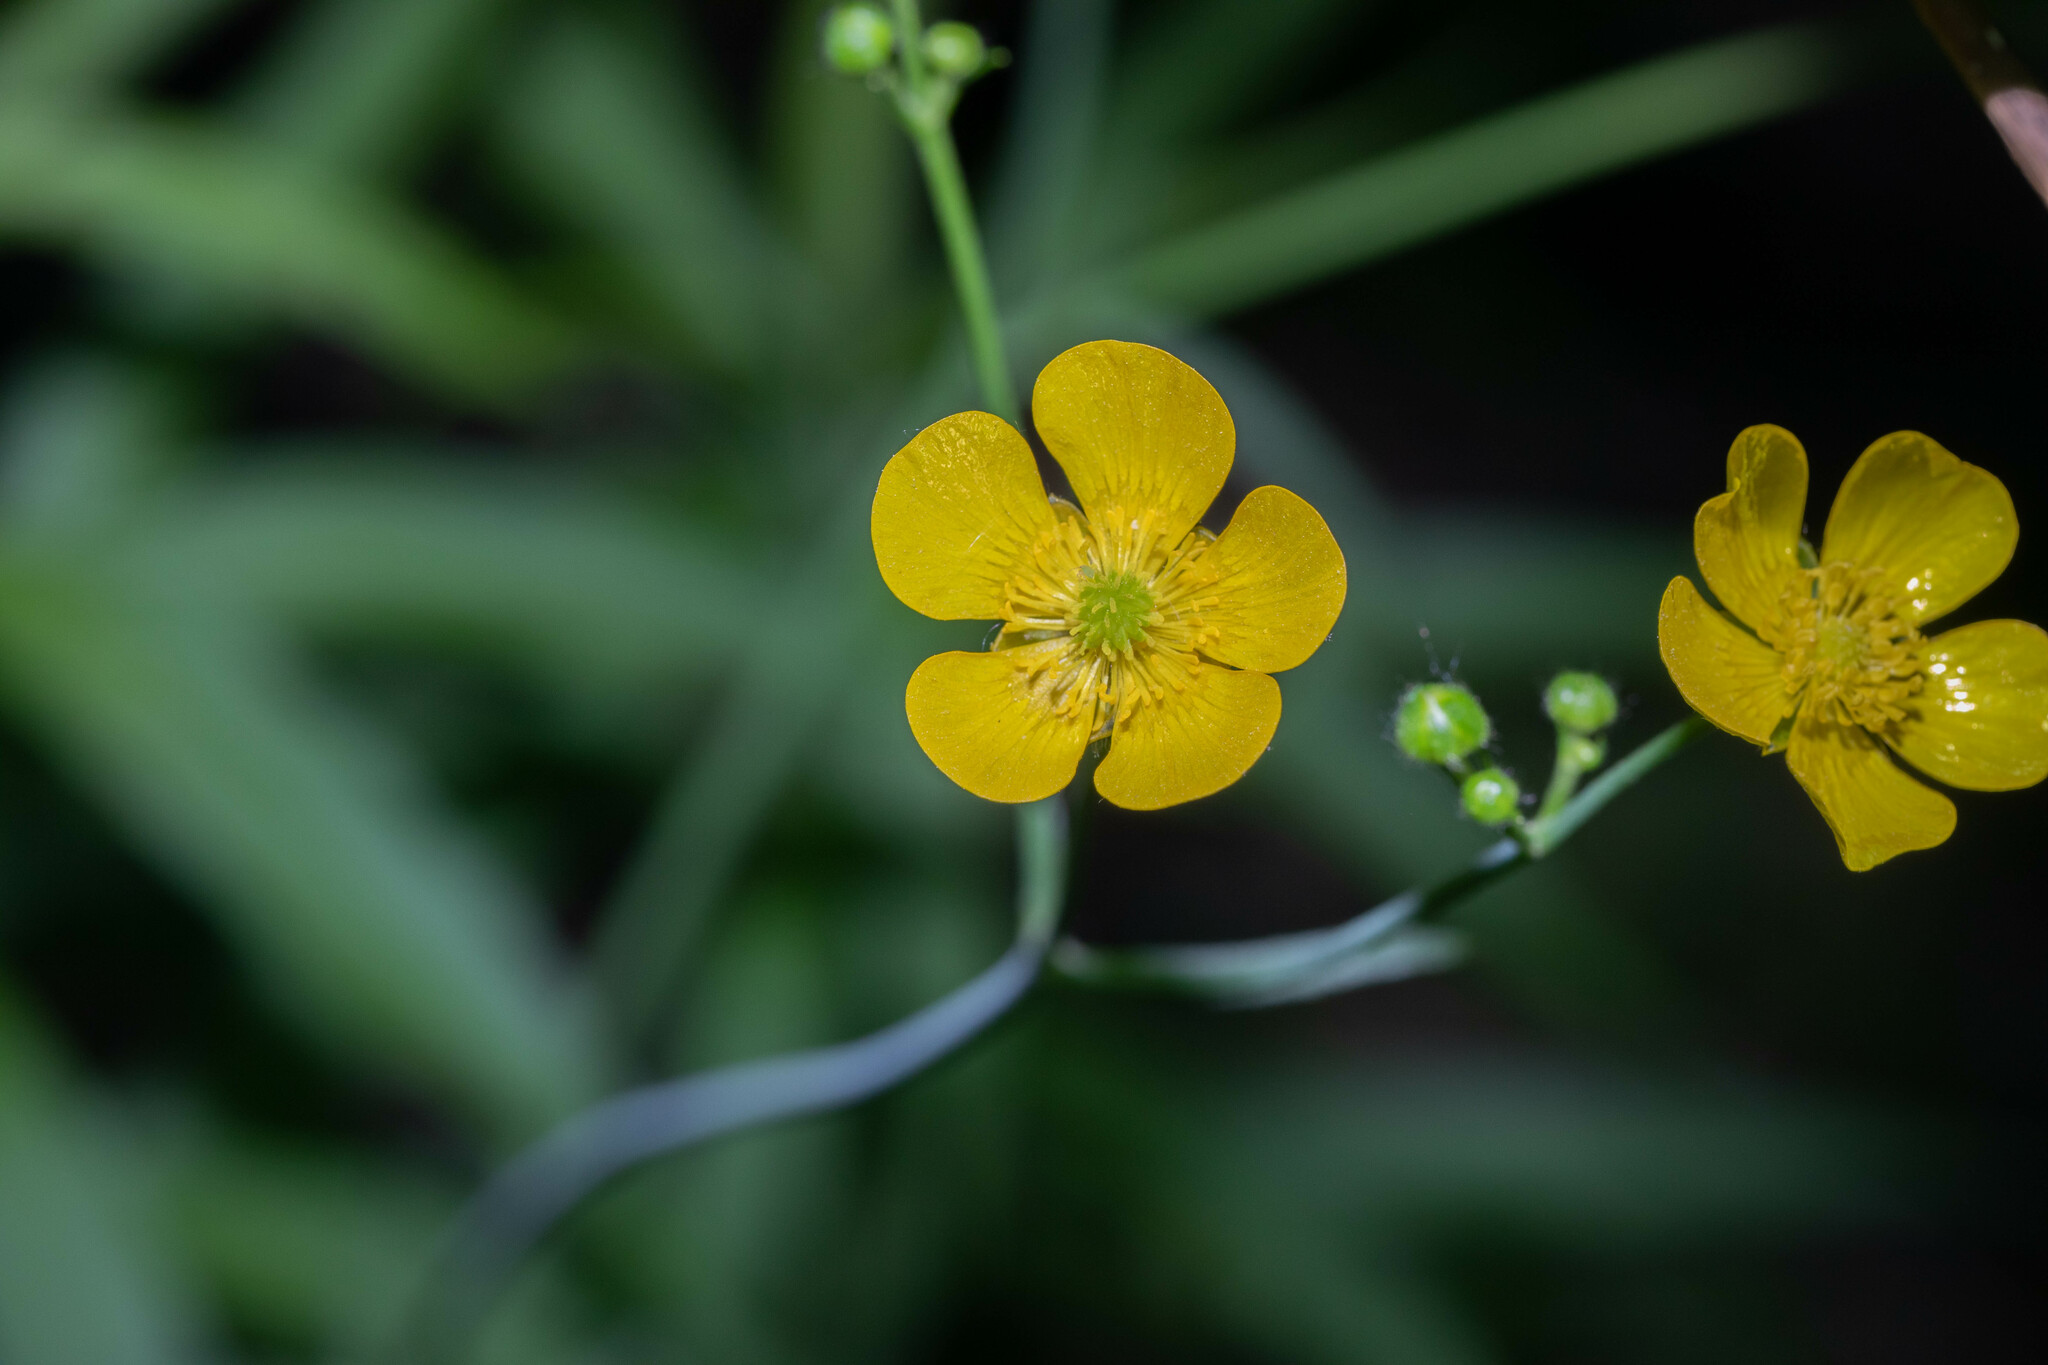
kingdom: Plantae
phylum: Tracheophyta
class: Magnoliopsida
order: Ranunculales
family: Ranunculaceae
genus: Ranunculus
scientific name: Ranunculus acris
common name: Meadow buttercup
